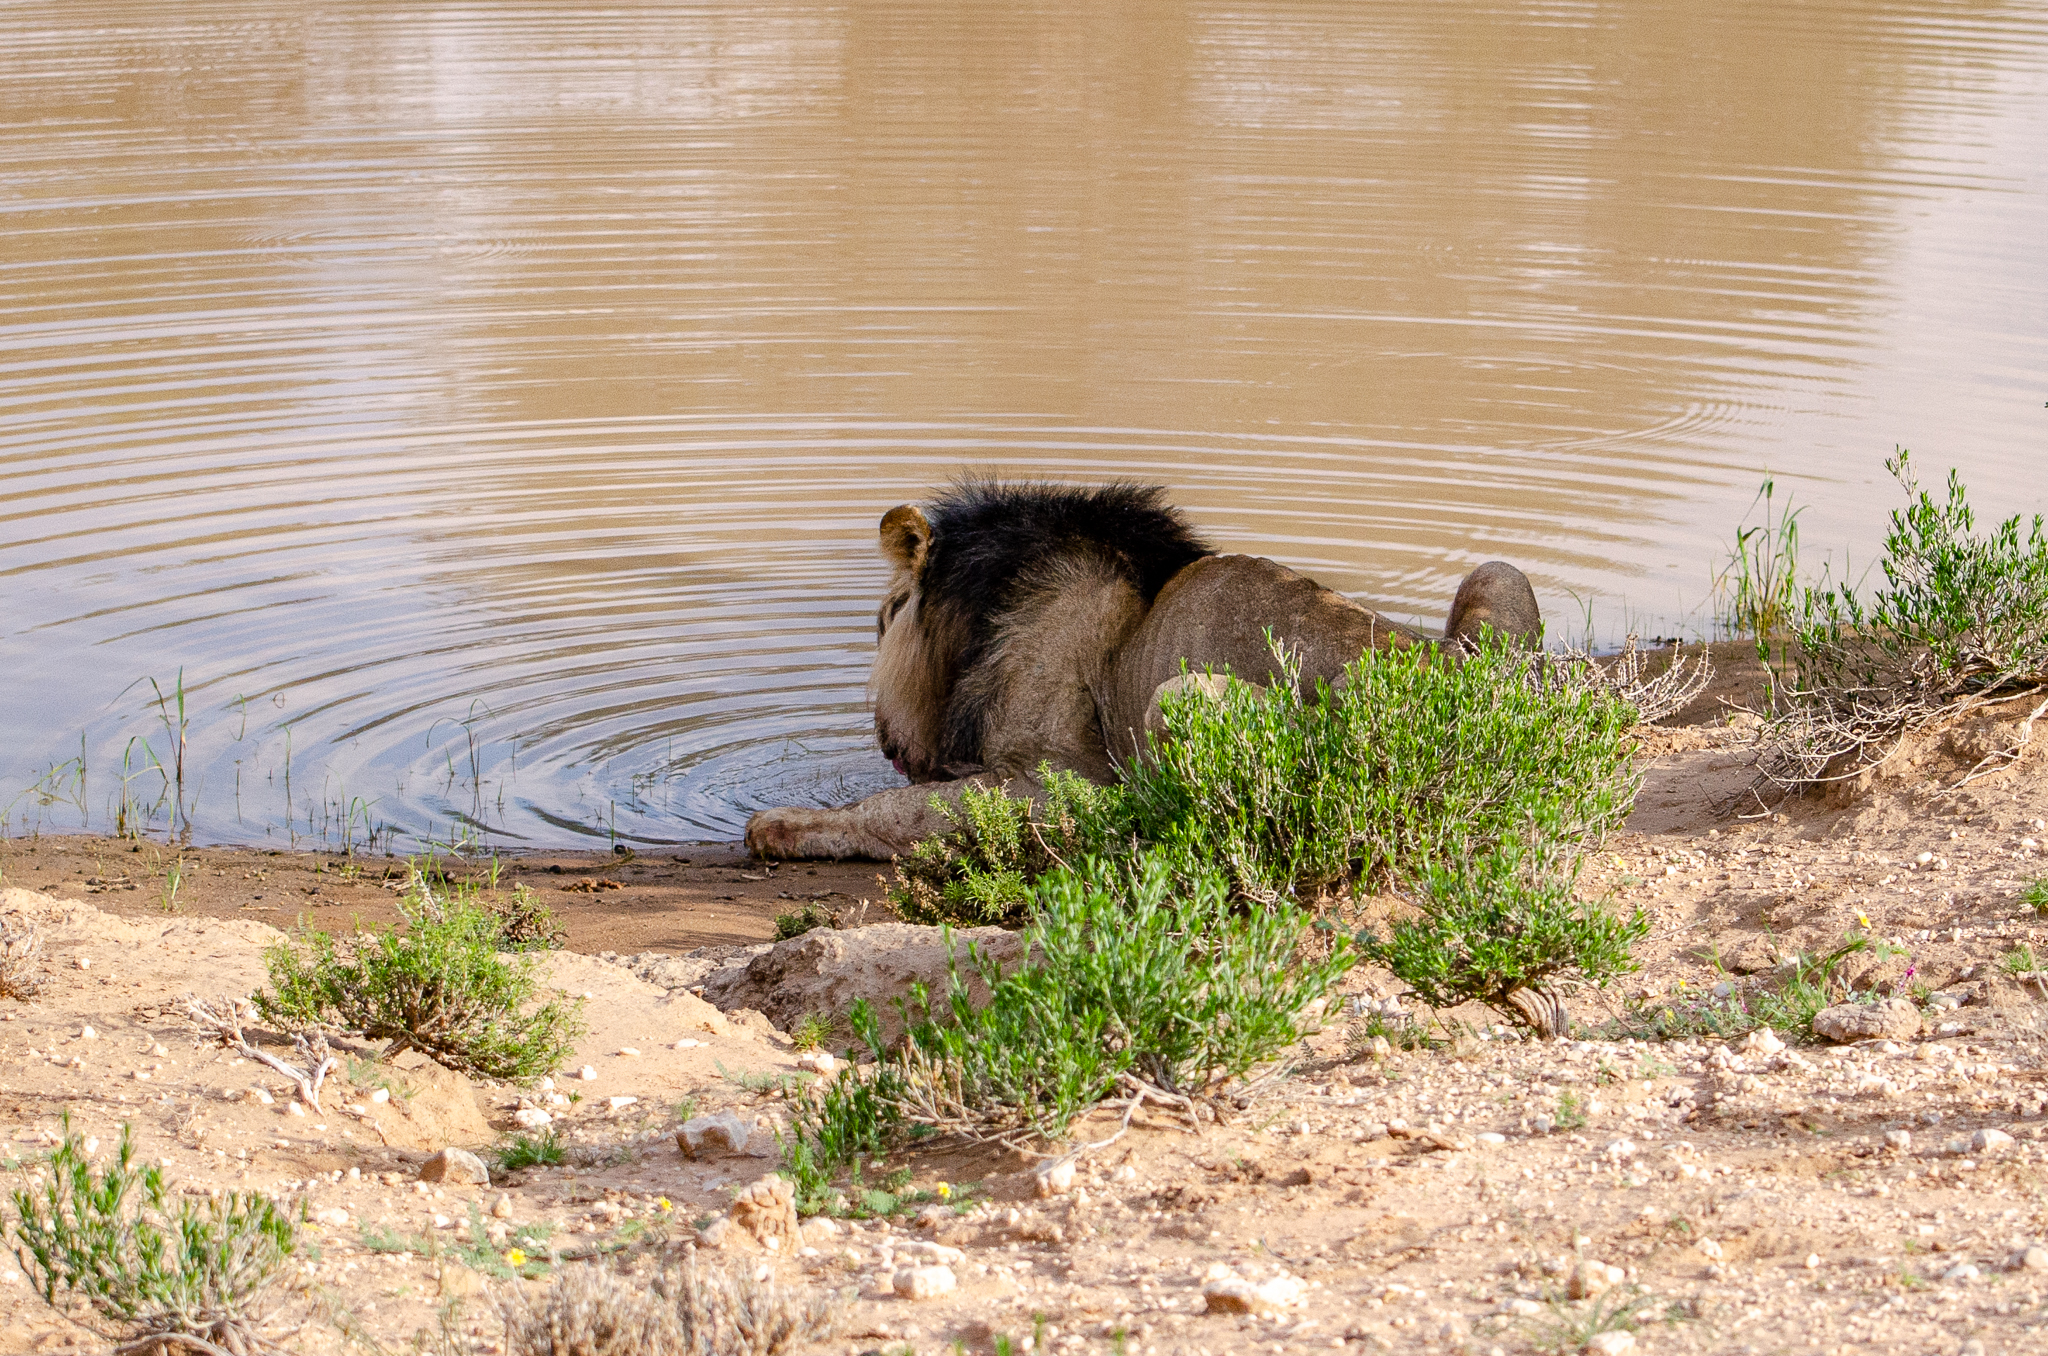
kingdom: Animalia
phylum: Chordata
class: Mammalia
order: Carnivora
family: Felidae
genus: Panthera
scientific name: Panthera leo
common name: Lion
